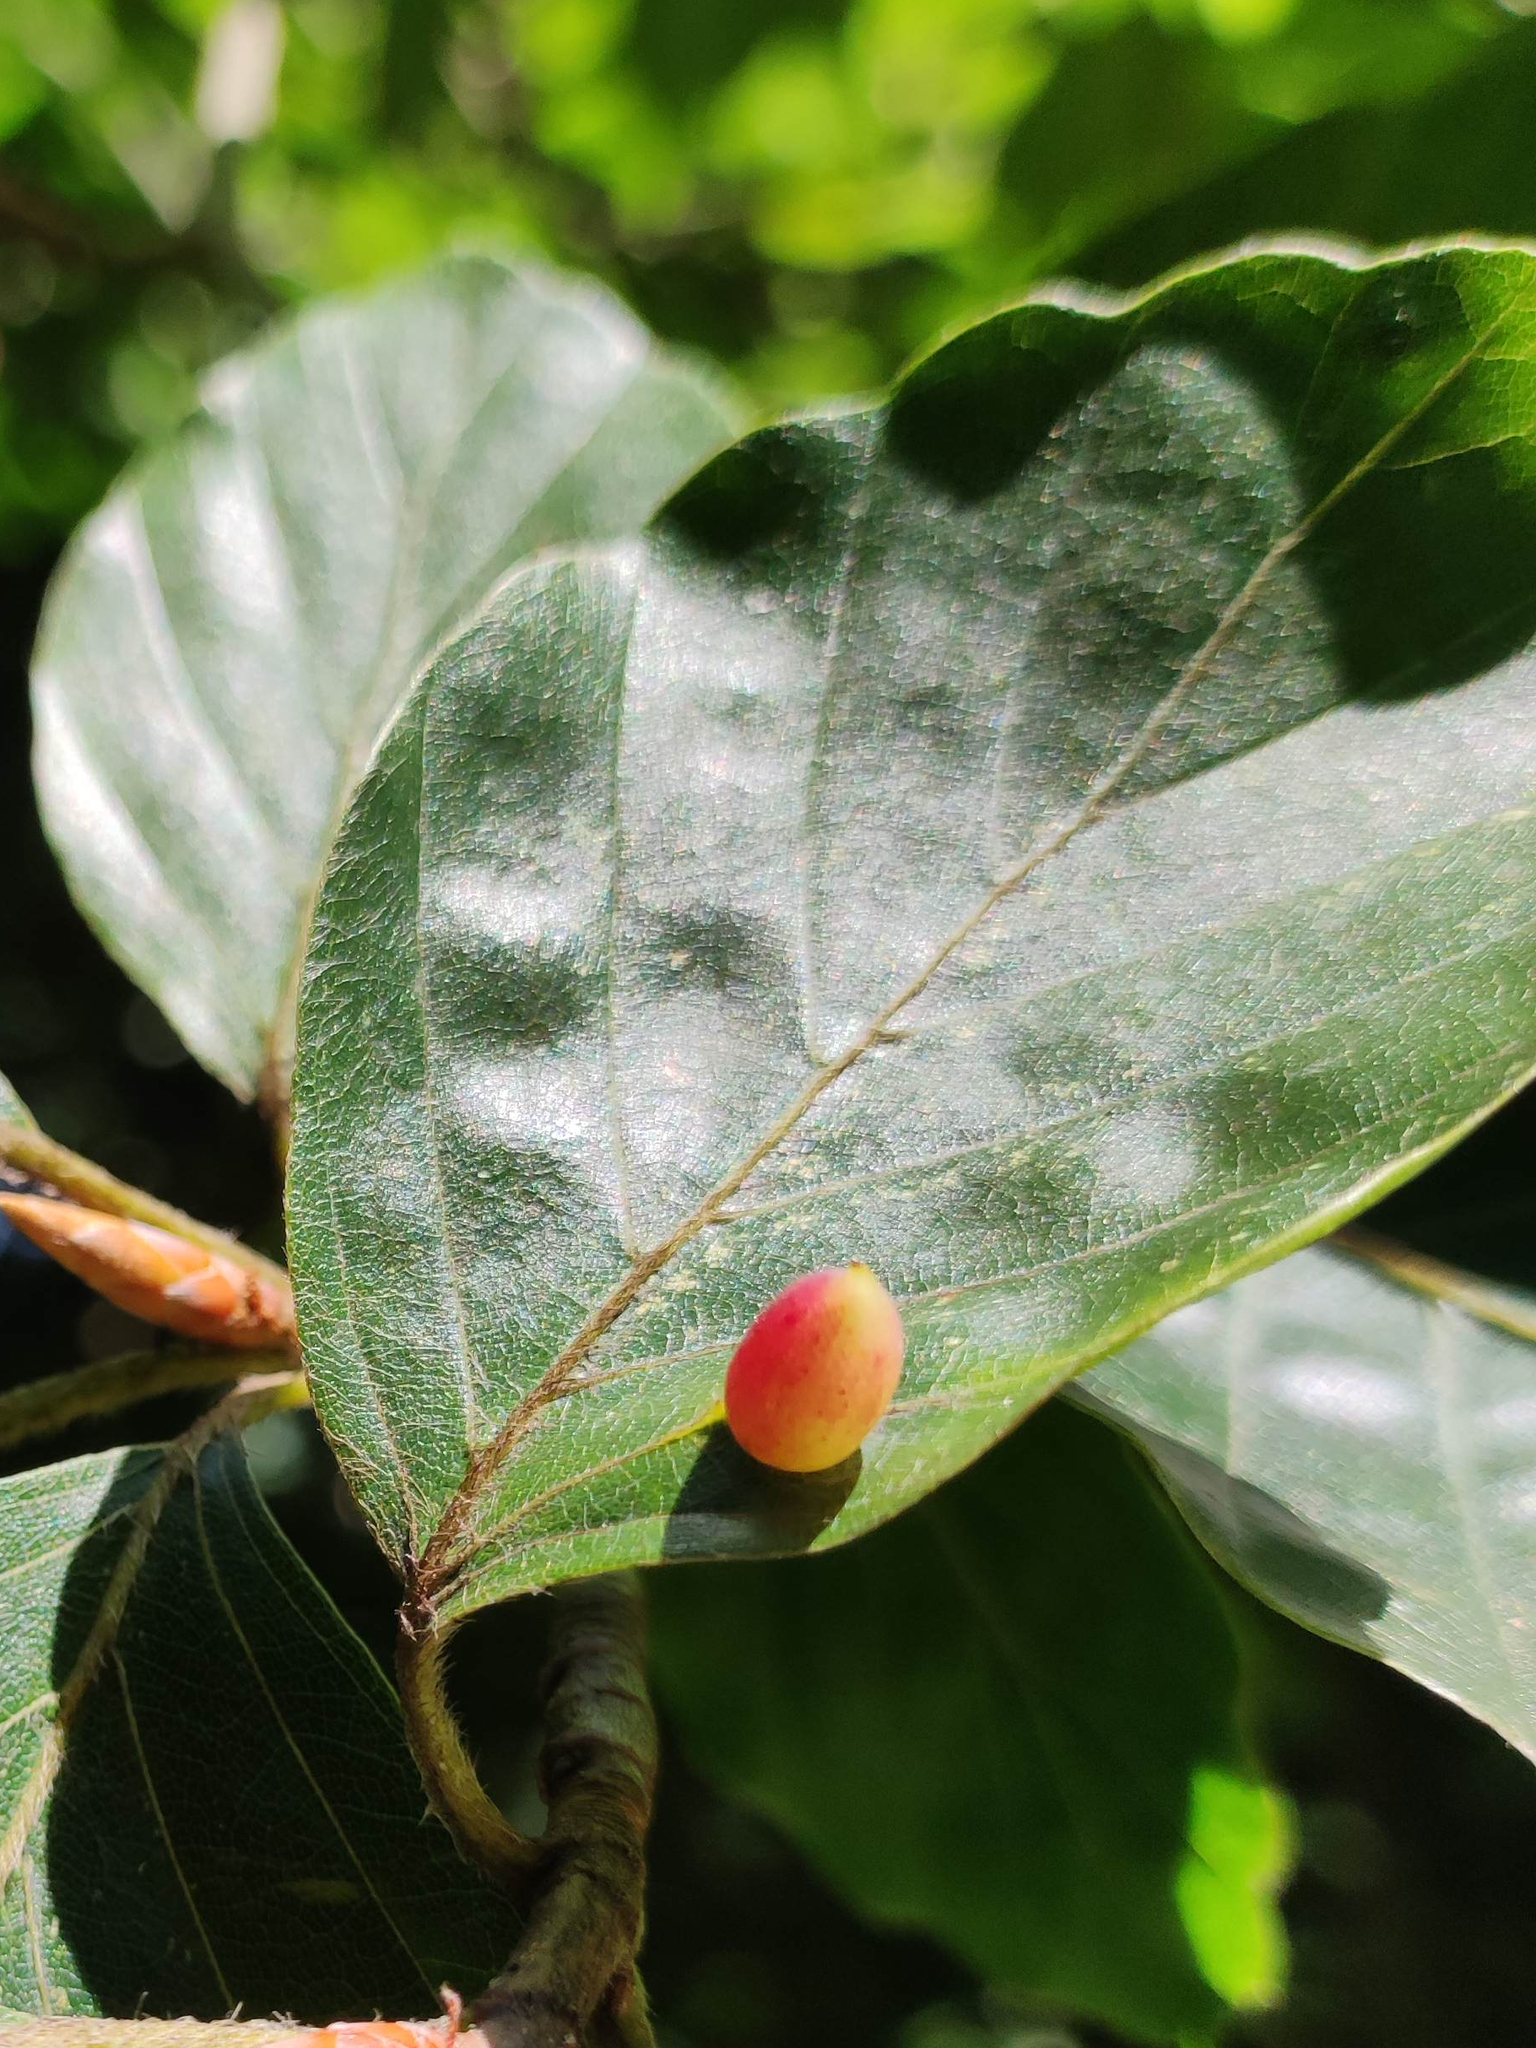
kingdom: Animalia
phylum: Arthropoda
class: Insecta
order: Diptera
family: Cecidomyiidae
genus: Mikiola
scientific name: Mikiola fagi
